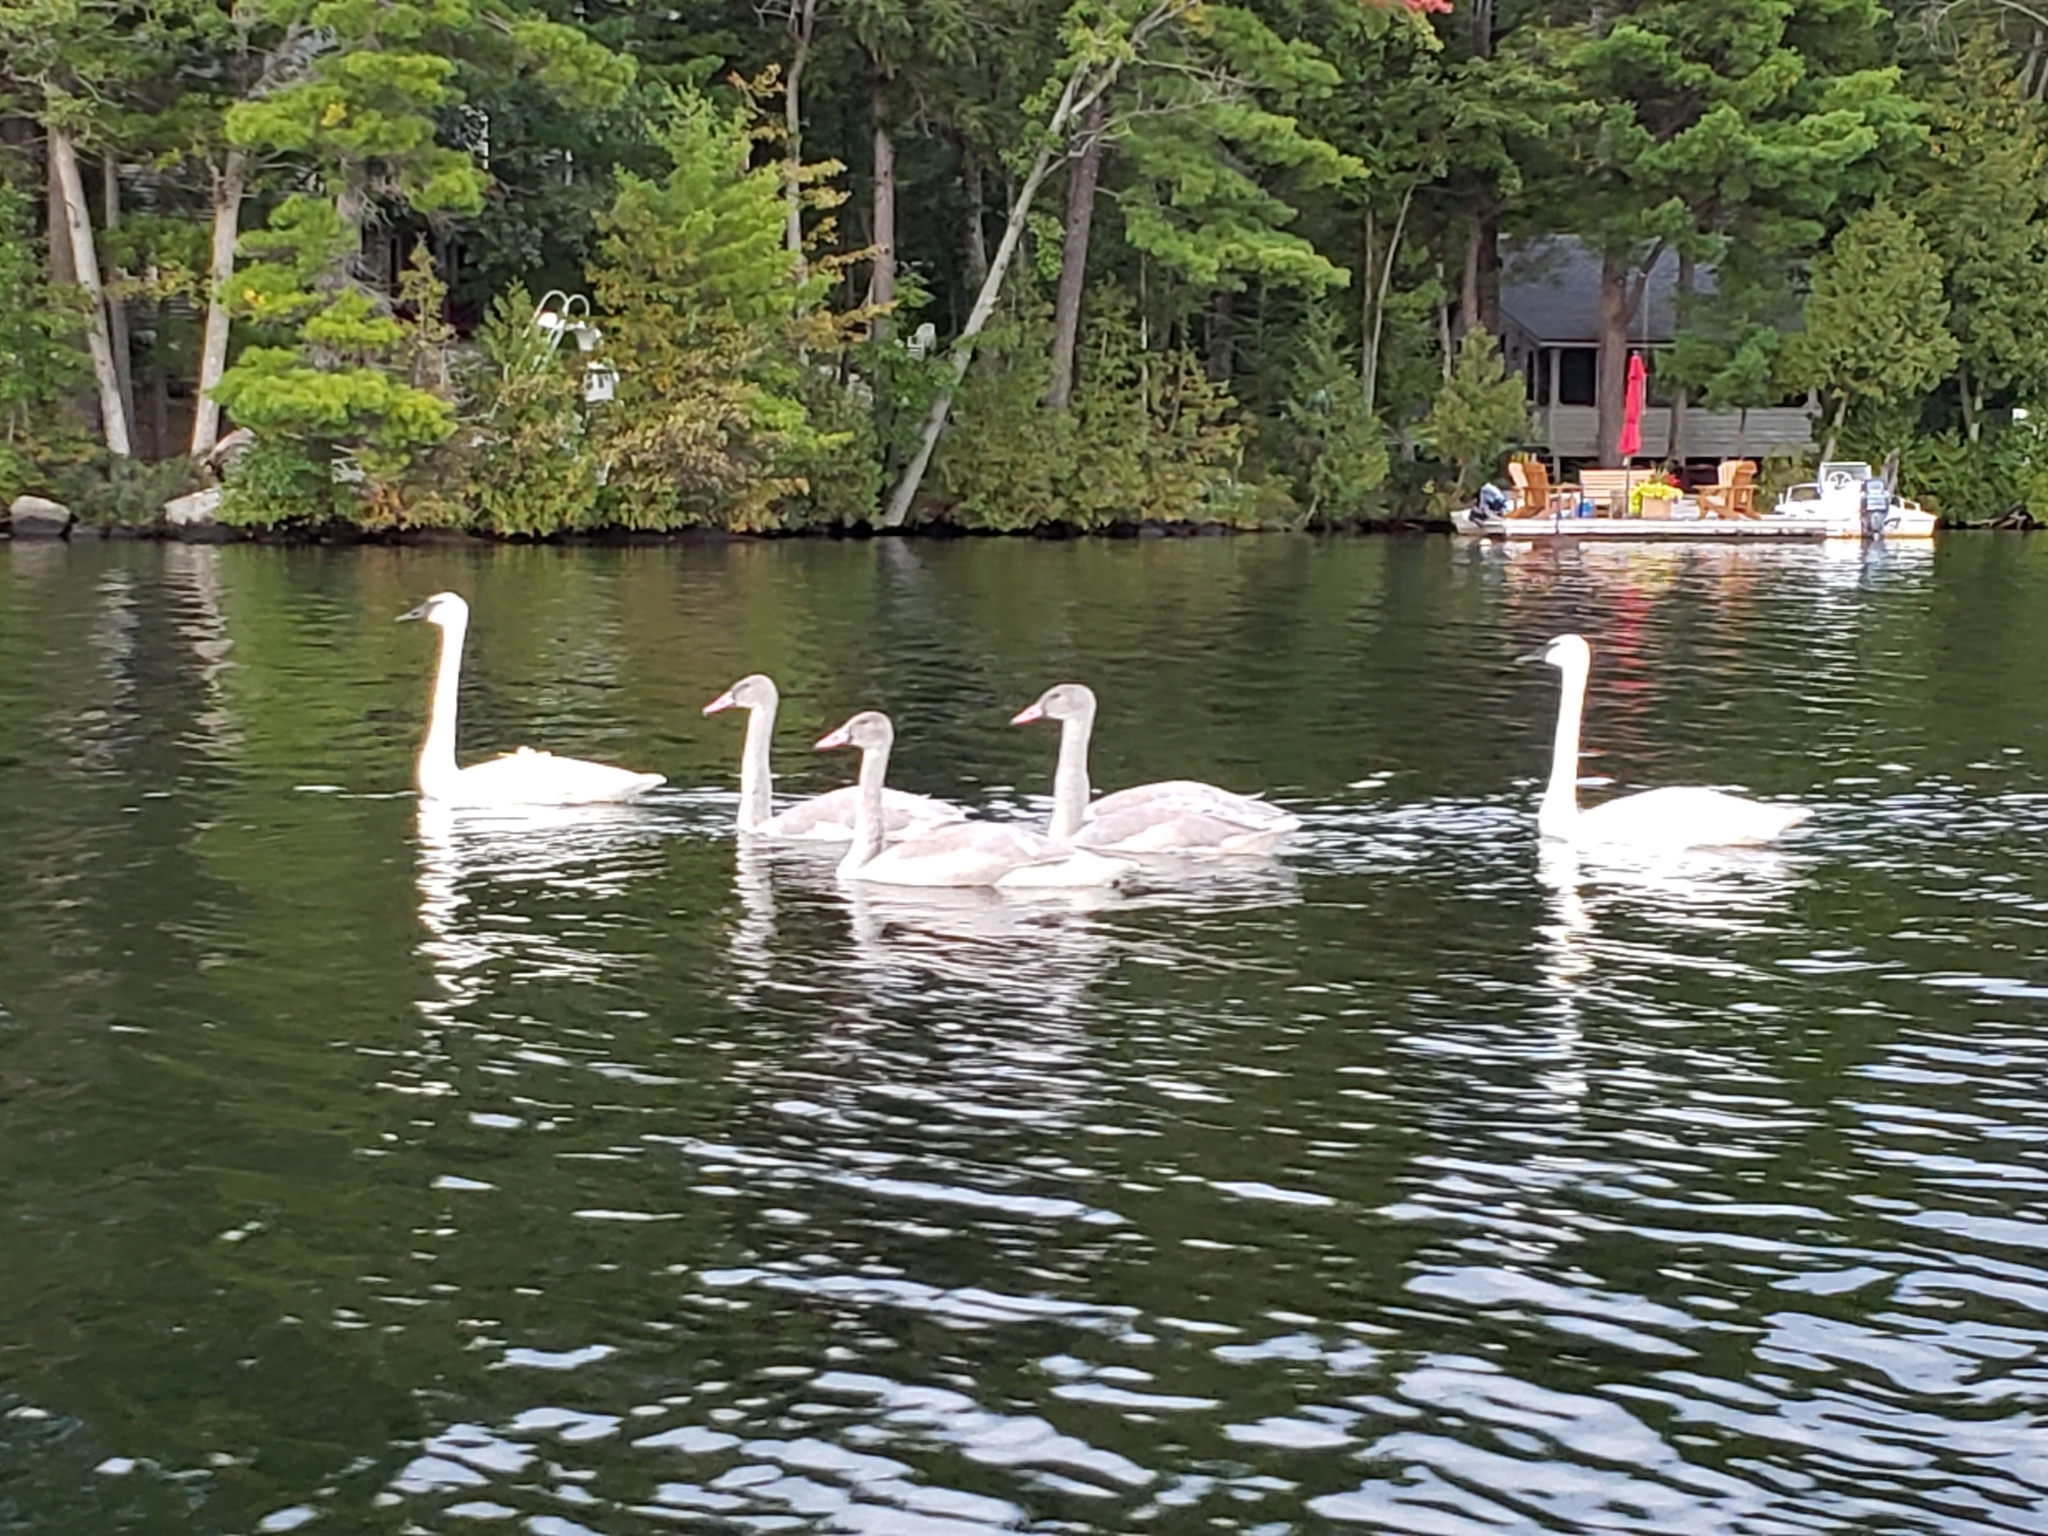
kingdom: Animalia
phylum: Chordata
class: Aves
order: Anseriformes
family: Anatidae
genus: Cygnus
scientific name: Cygnus buccinator
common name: Trumpeter swan
